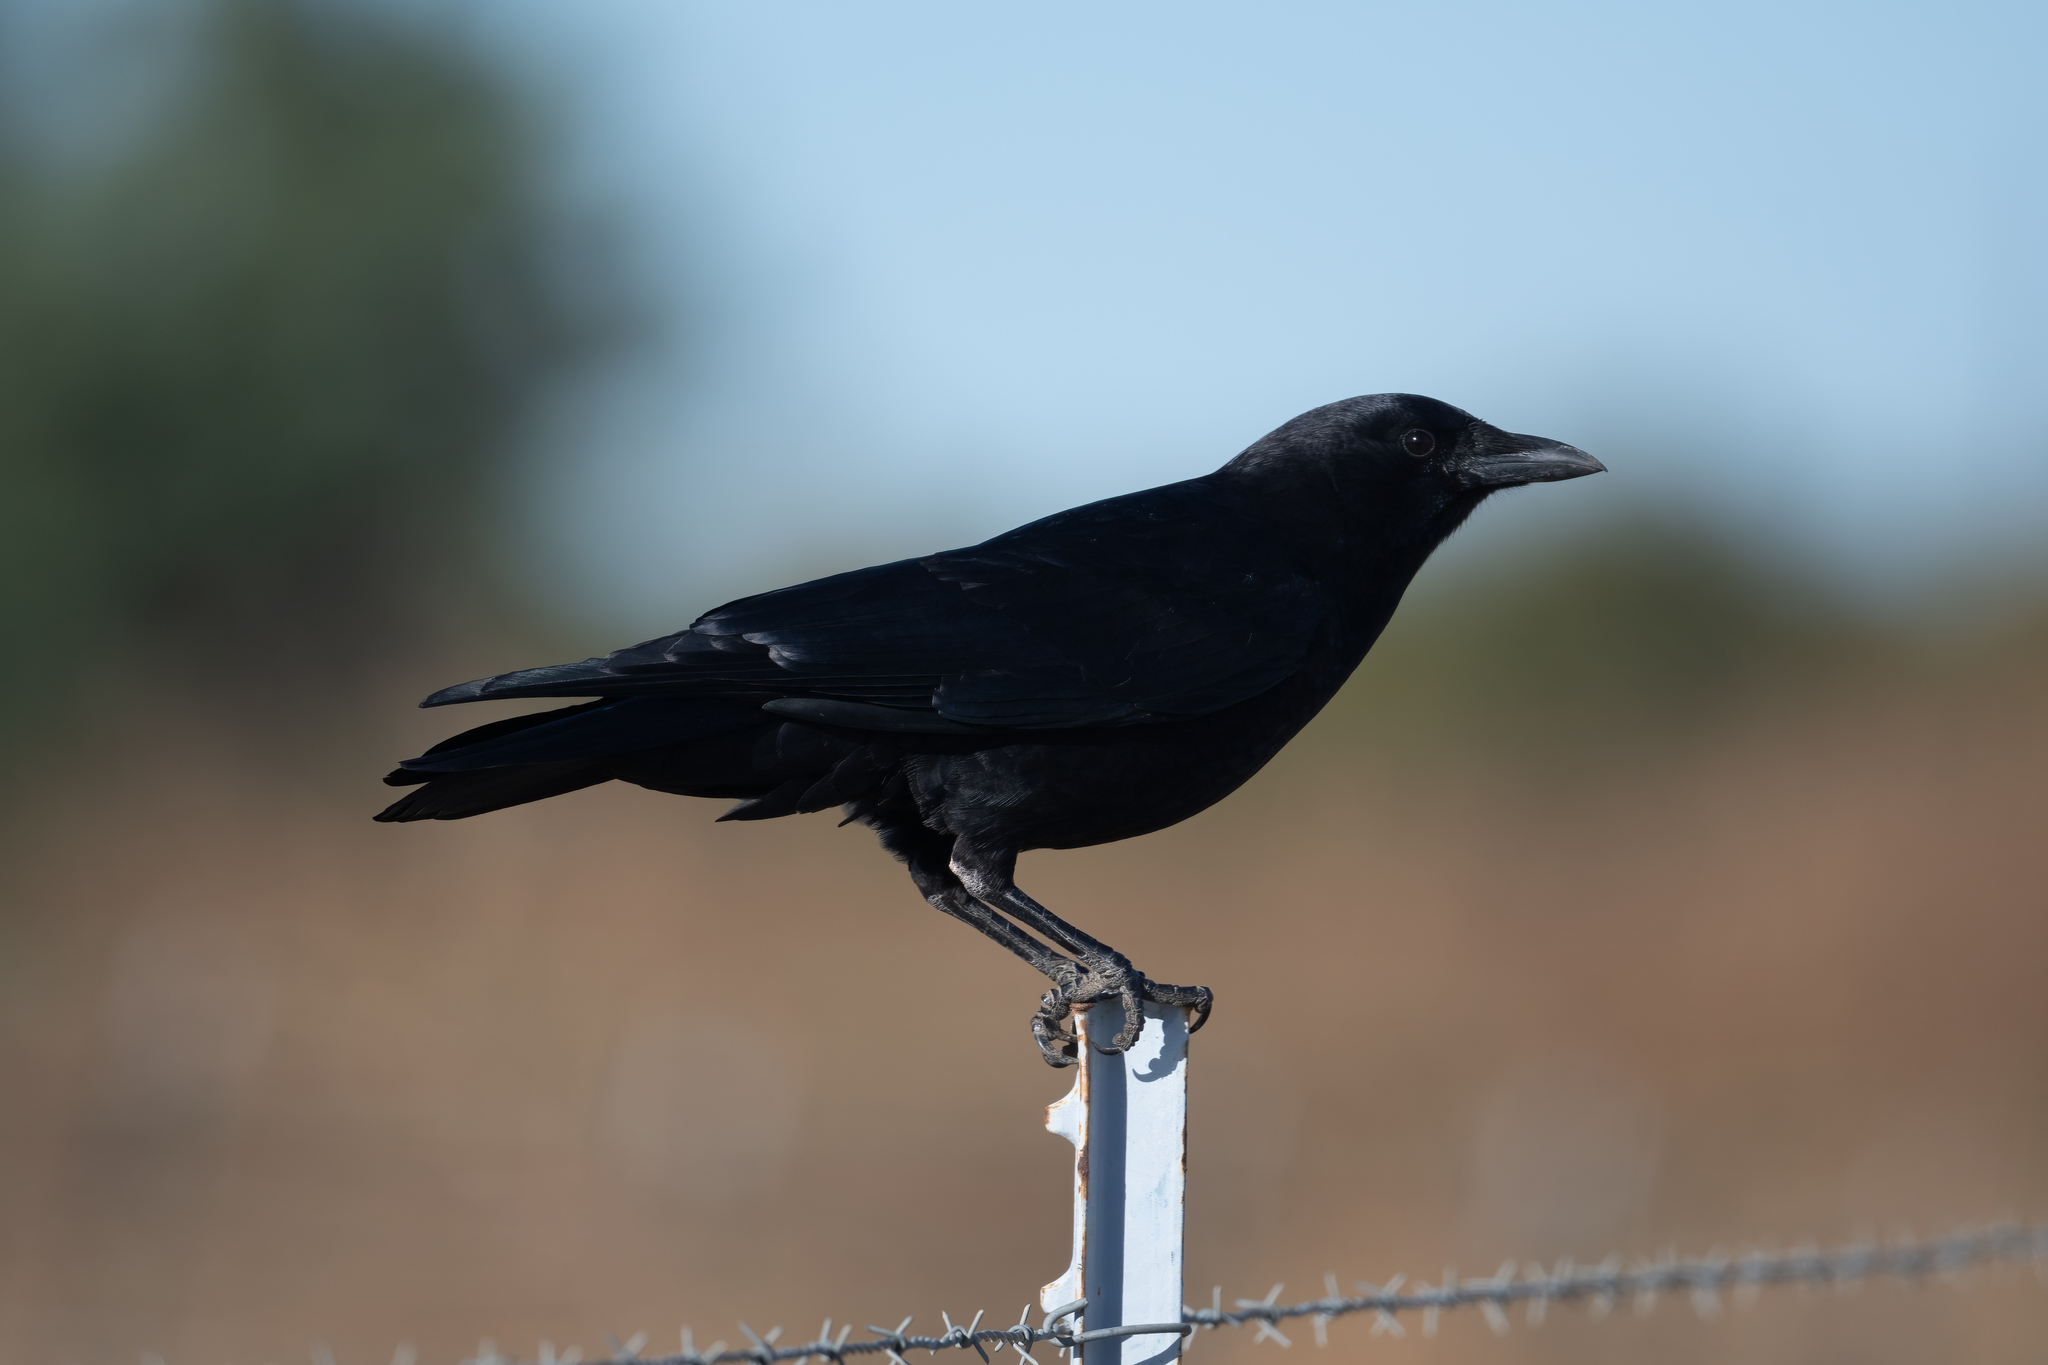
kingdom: Animalia
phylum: Chordata
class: Aves
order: Passeriformes
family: Corvidae
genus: Corvus
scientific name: Corvus brachyrhynchos
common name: American crow
